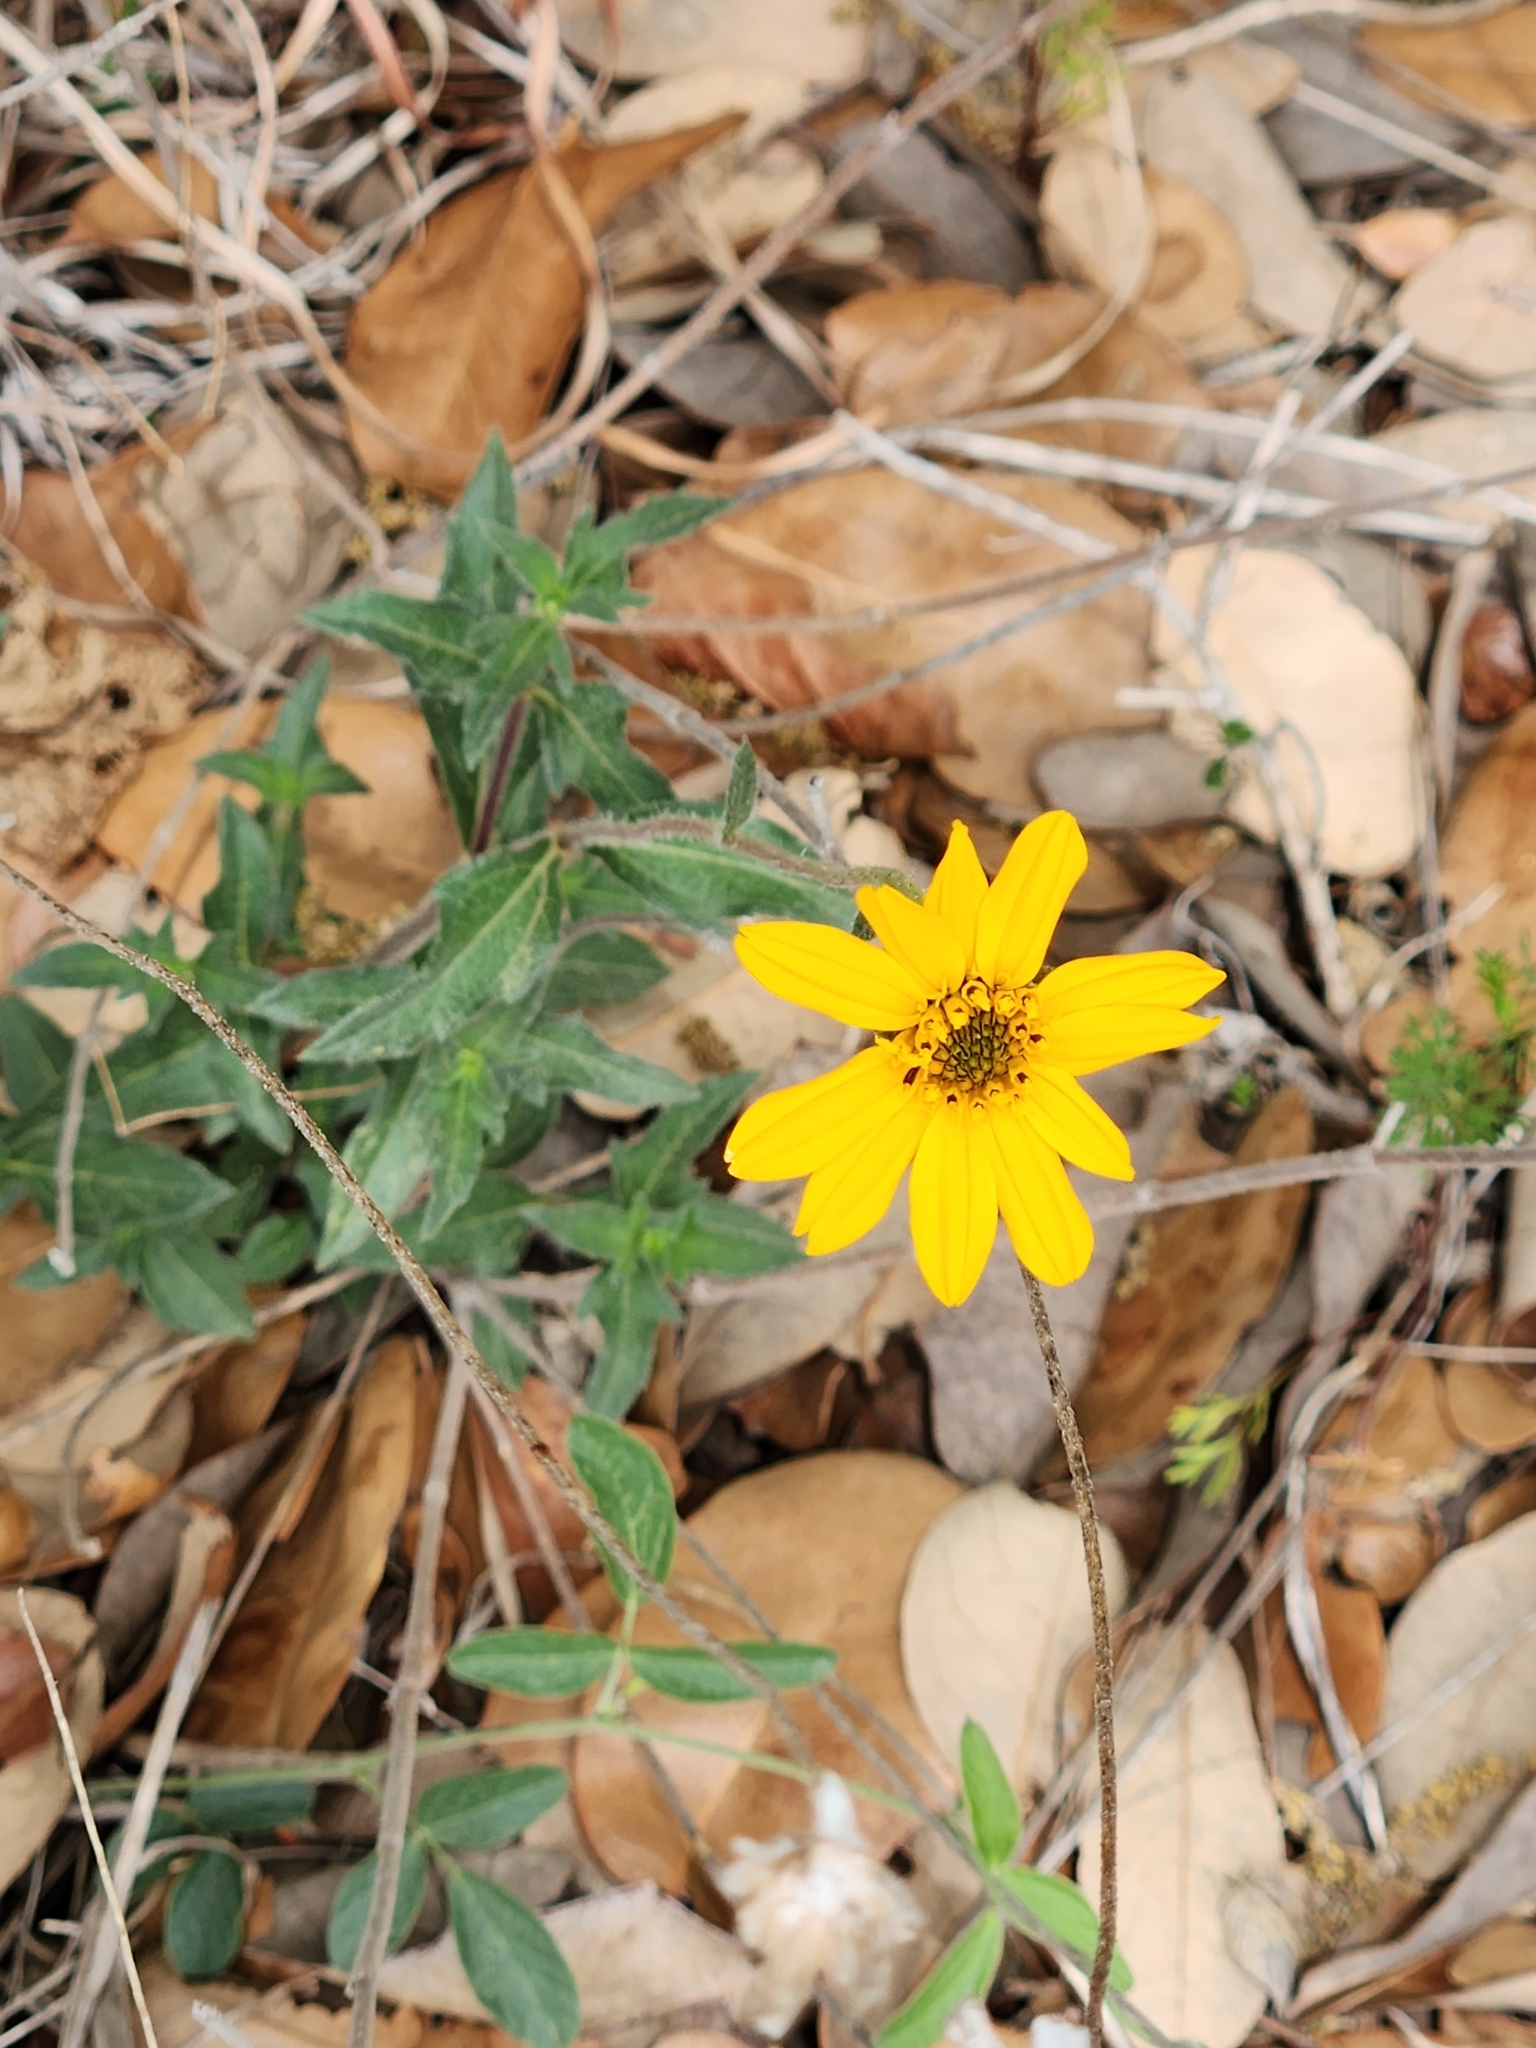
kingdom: Plantae
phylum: Tracheophyta
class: Magnoliopsida
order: Asterales
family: Asteraceae
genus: Wedelia
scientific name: Wedelia acapulcensis
